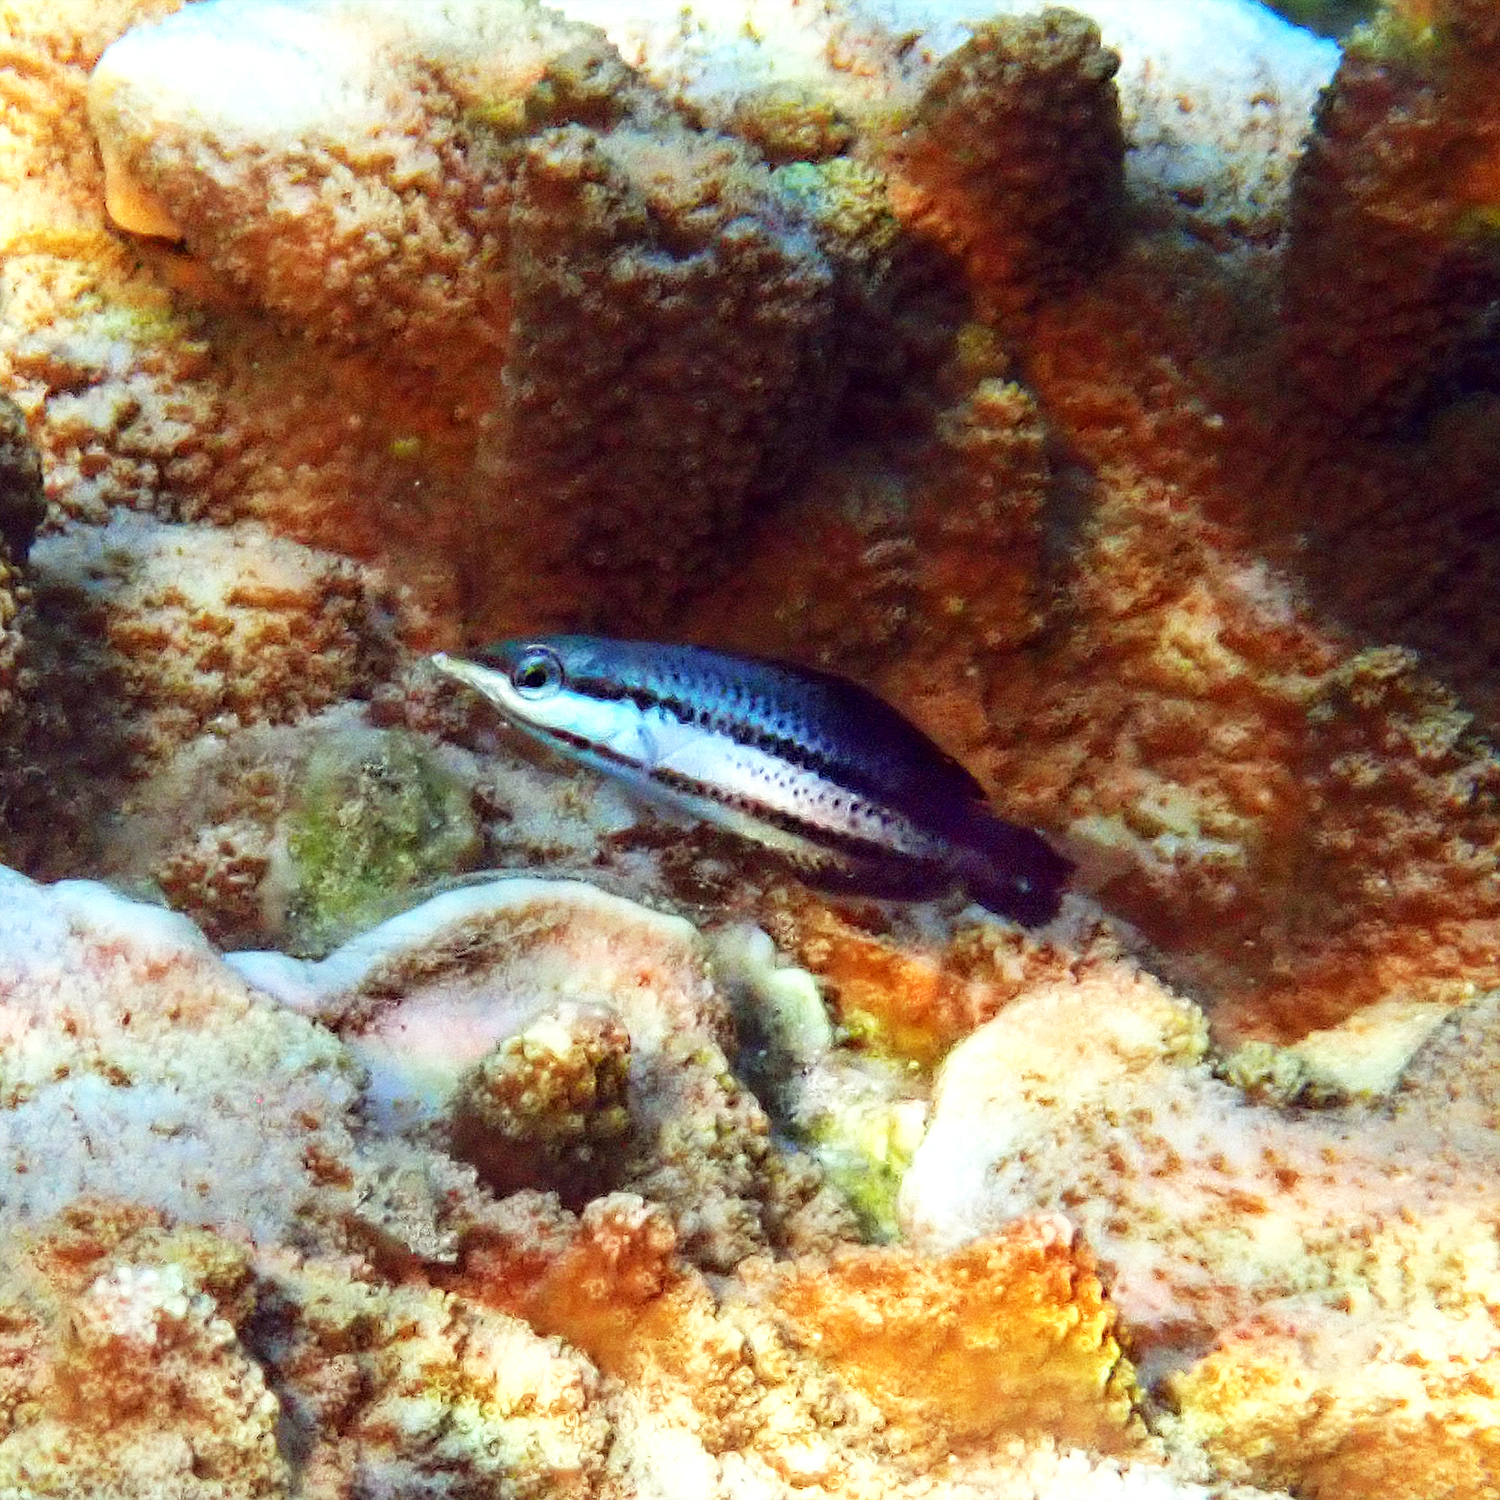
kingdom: Animalia
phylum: Chordata
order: Perciformes
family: Labridae
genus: Gomphosus
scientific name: Gomphosus varius
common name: Bird wrasse
